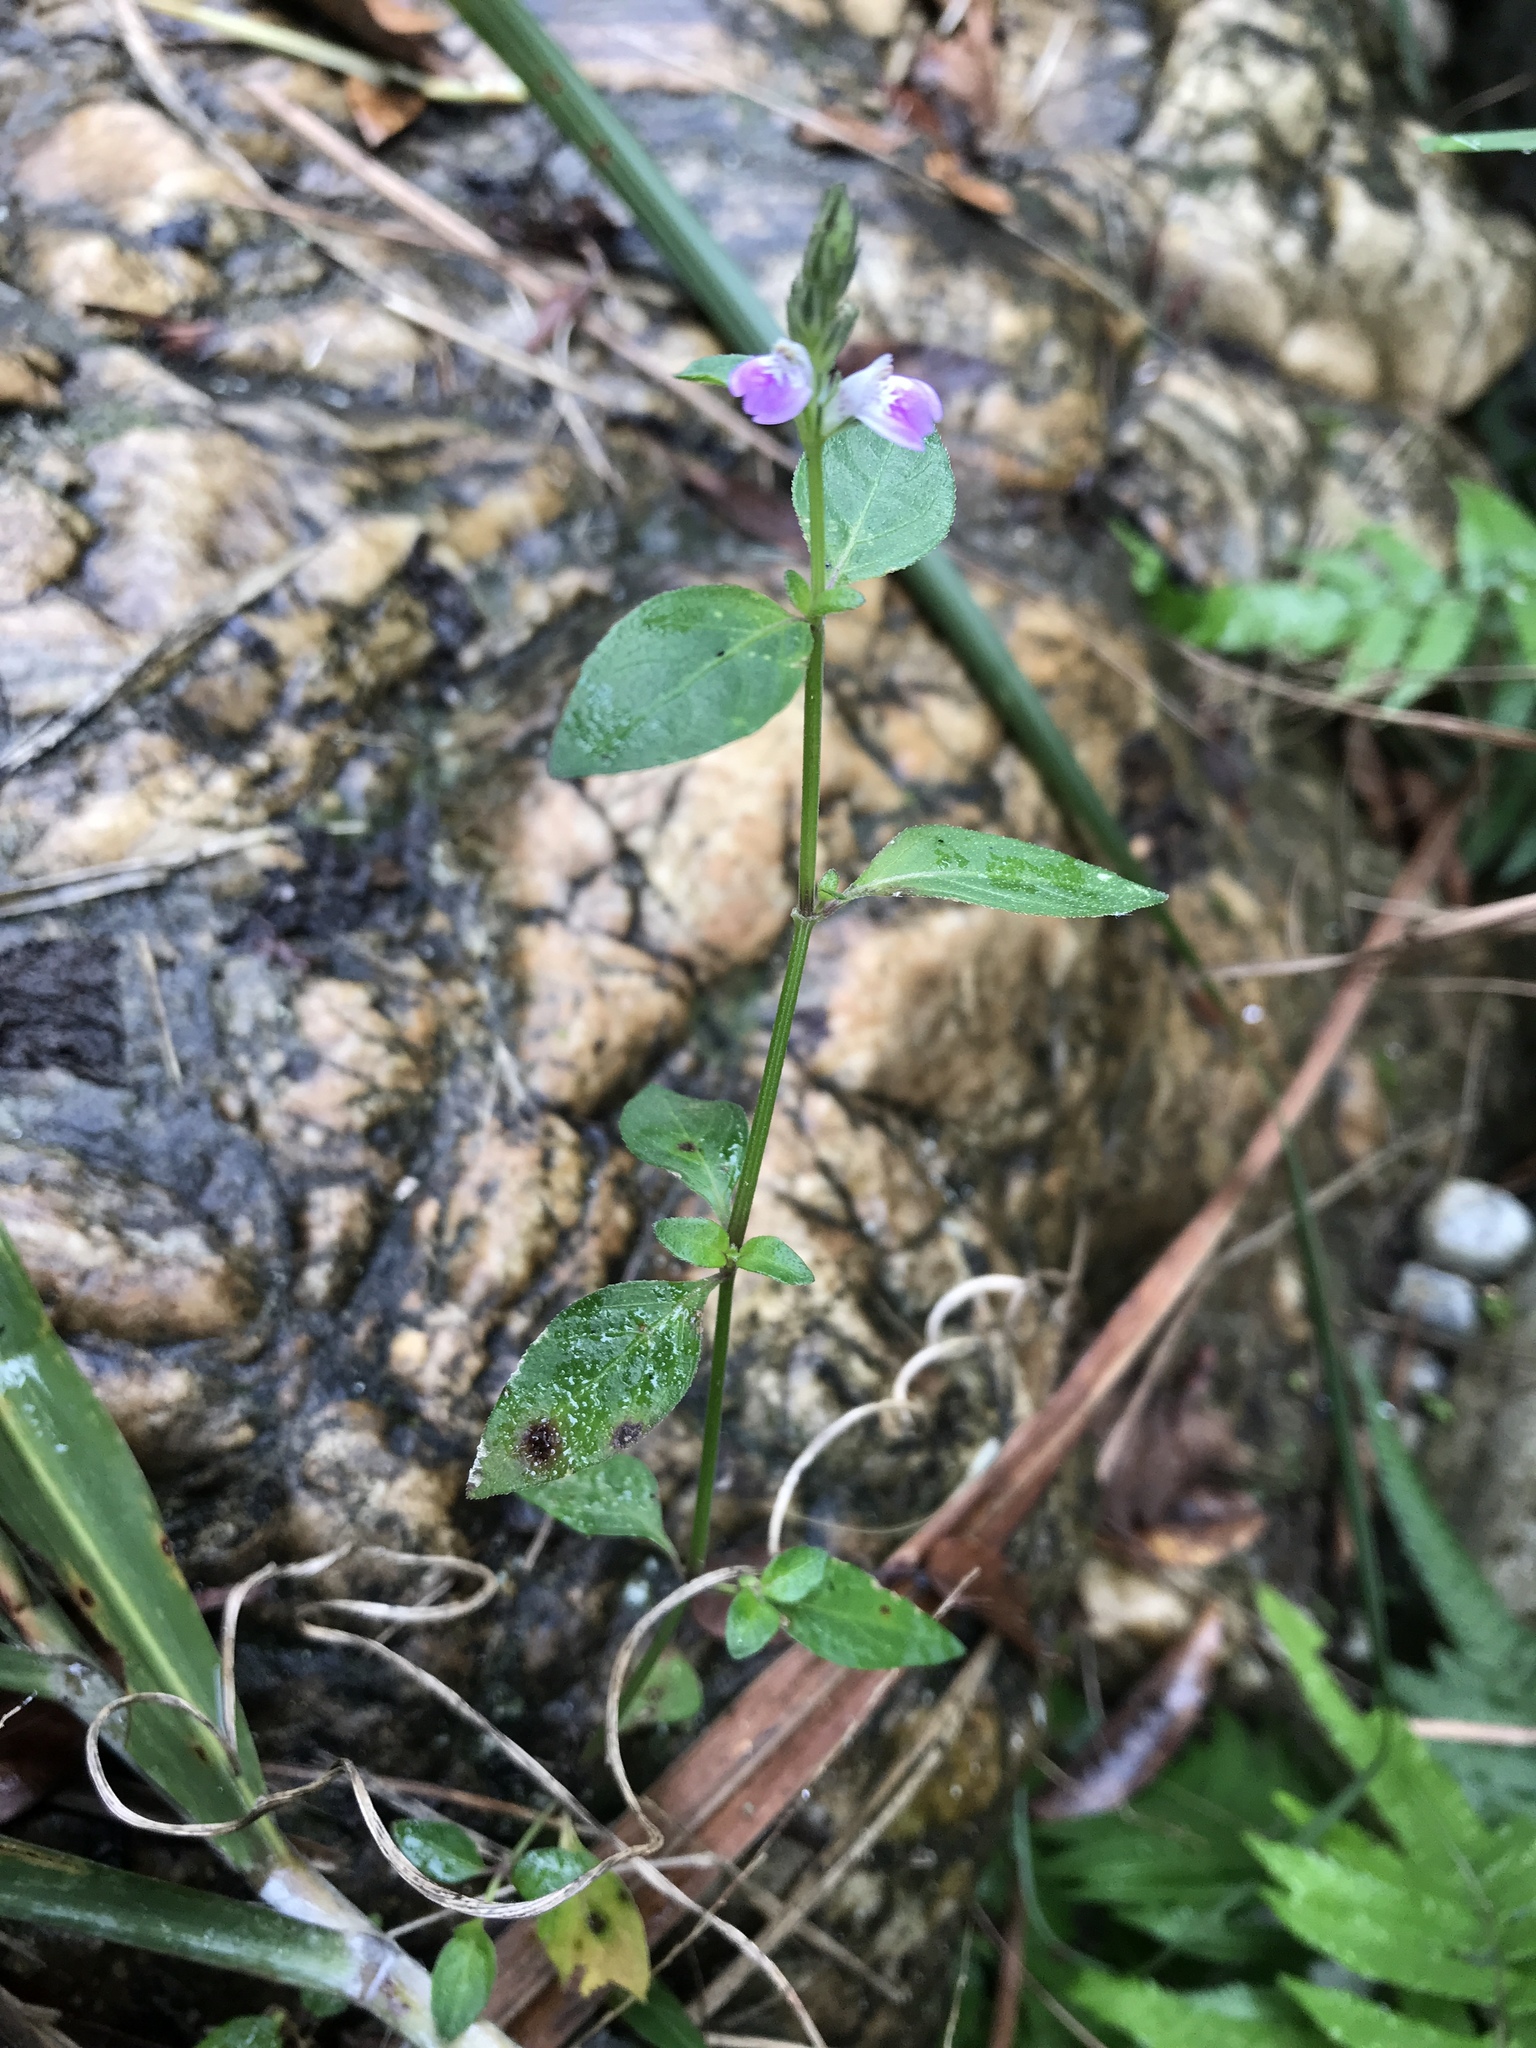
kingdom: Plantae
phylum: Tracheophyta
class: Magnoliopsida
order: Lamiales
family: Acanthaceae
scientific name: Acanthaceae
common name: Acanthaceae
